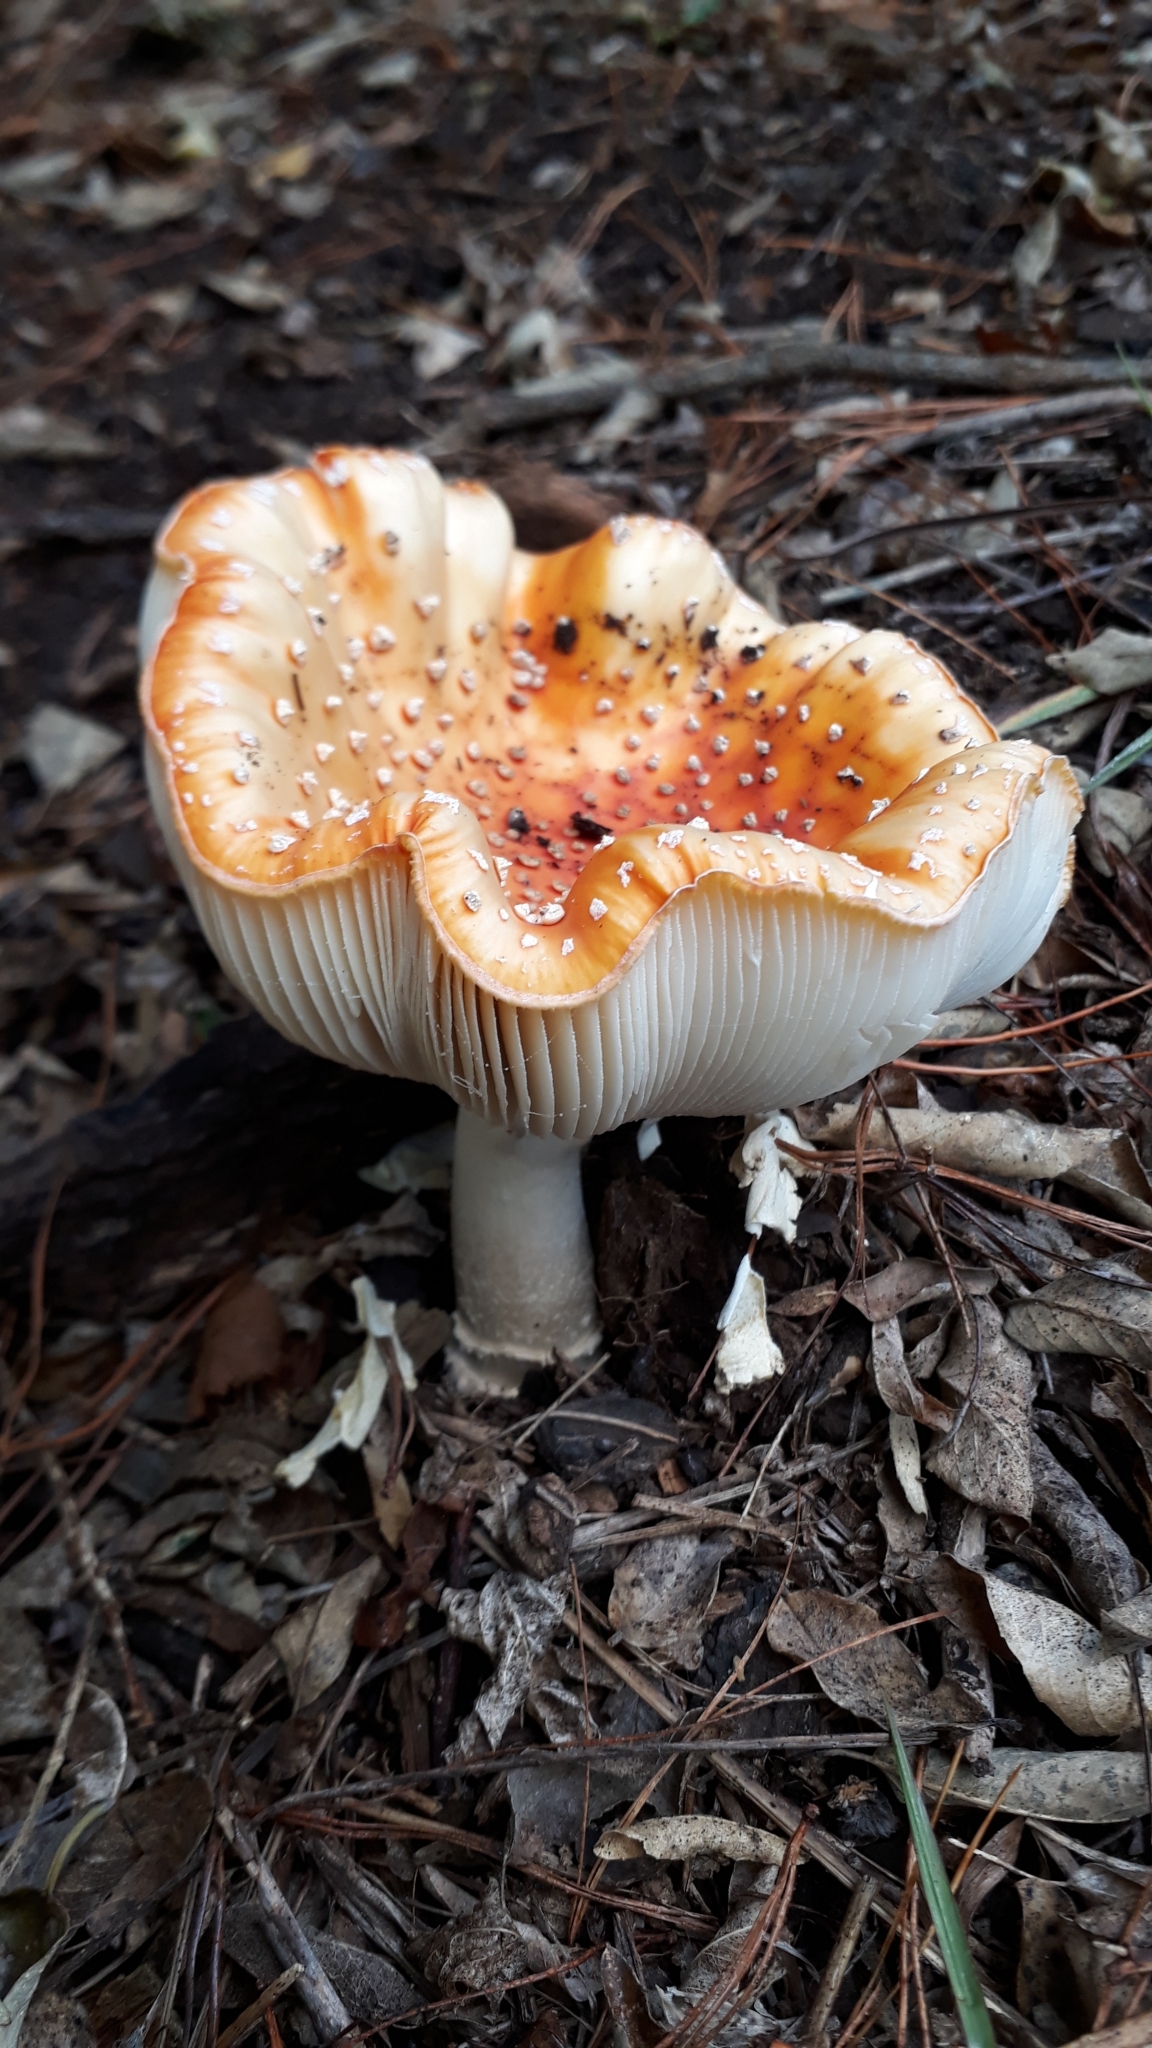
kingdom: Fungi
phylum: Basidiomycota
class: Agaricomycetes
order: Agaricales
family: Amanitaceae
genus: Amanita
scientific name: Amanita muscaria
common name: Fly agaric
